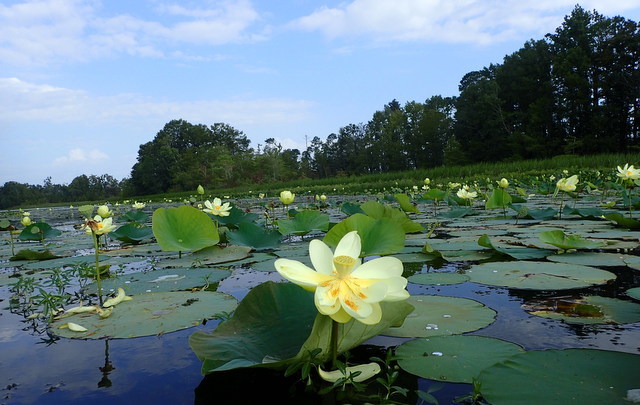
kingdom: Plantae
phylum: Tracheophyta
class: Magnoliopsida
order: Proteales
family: Nelumbonaceae
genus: Nelumbo
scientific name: Nelumbo lutea
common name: American lotus
